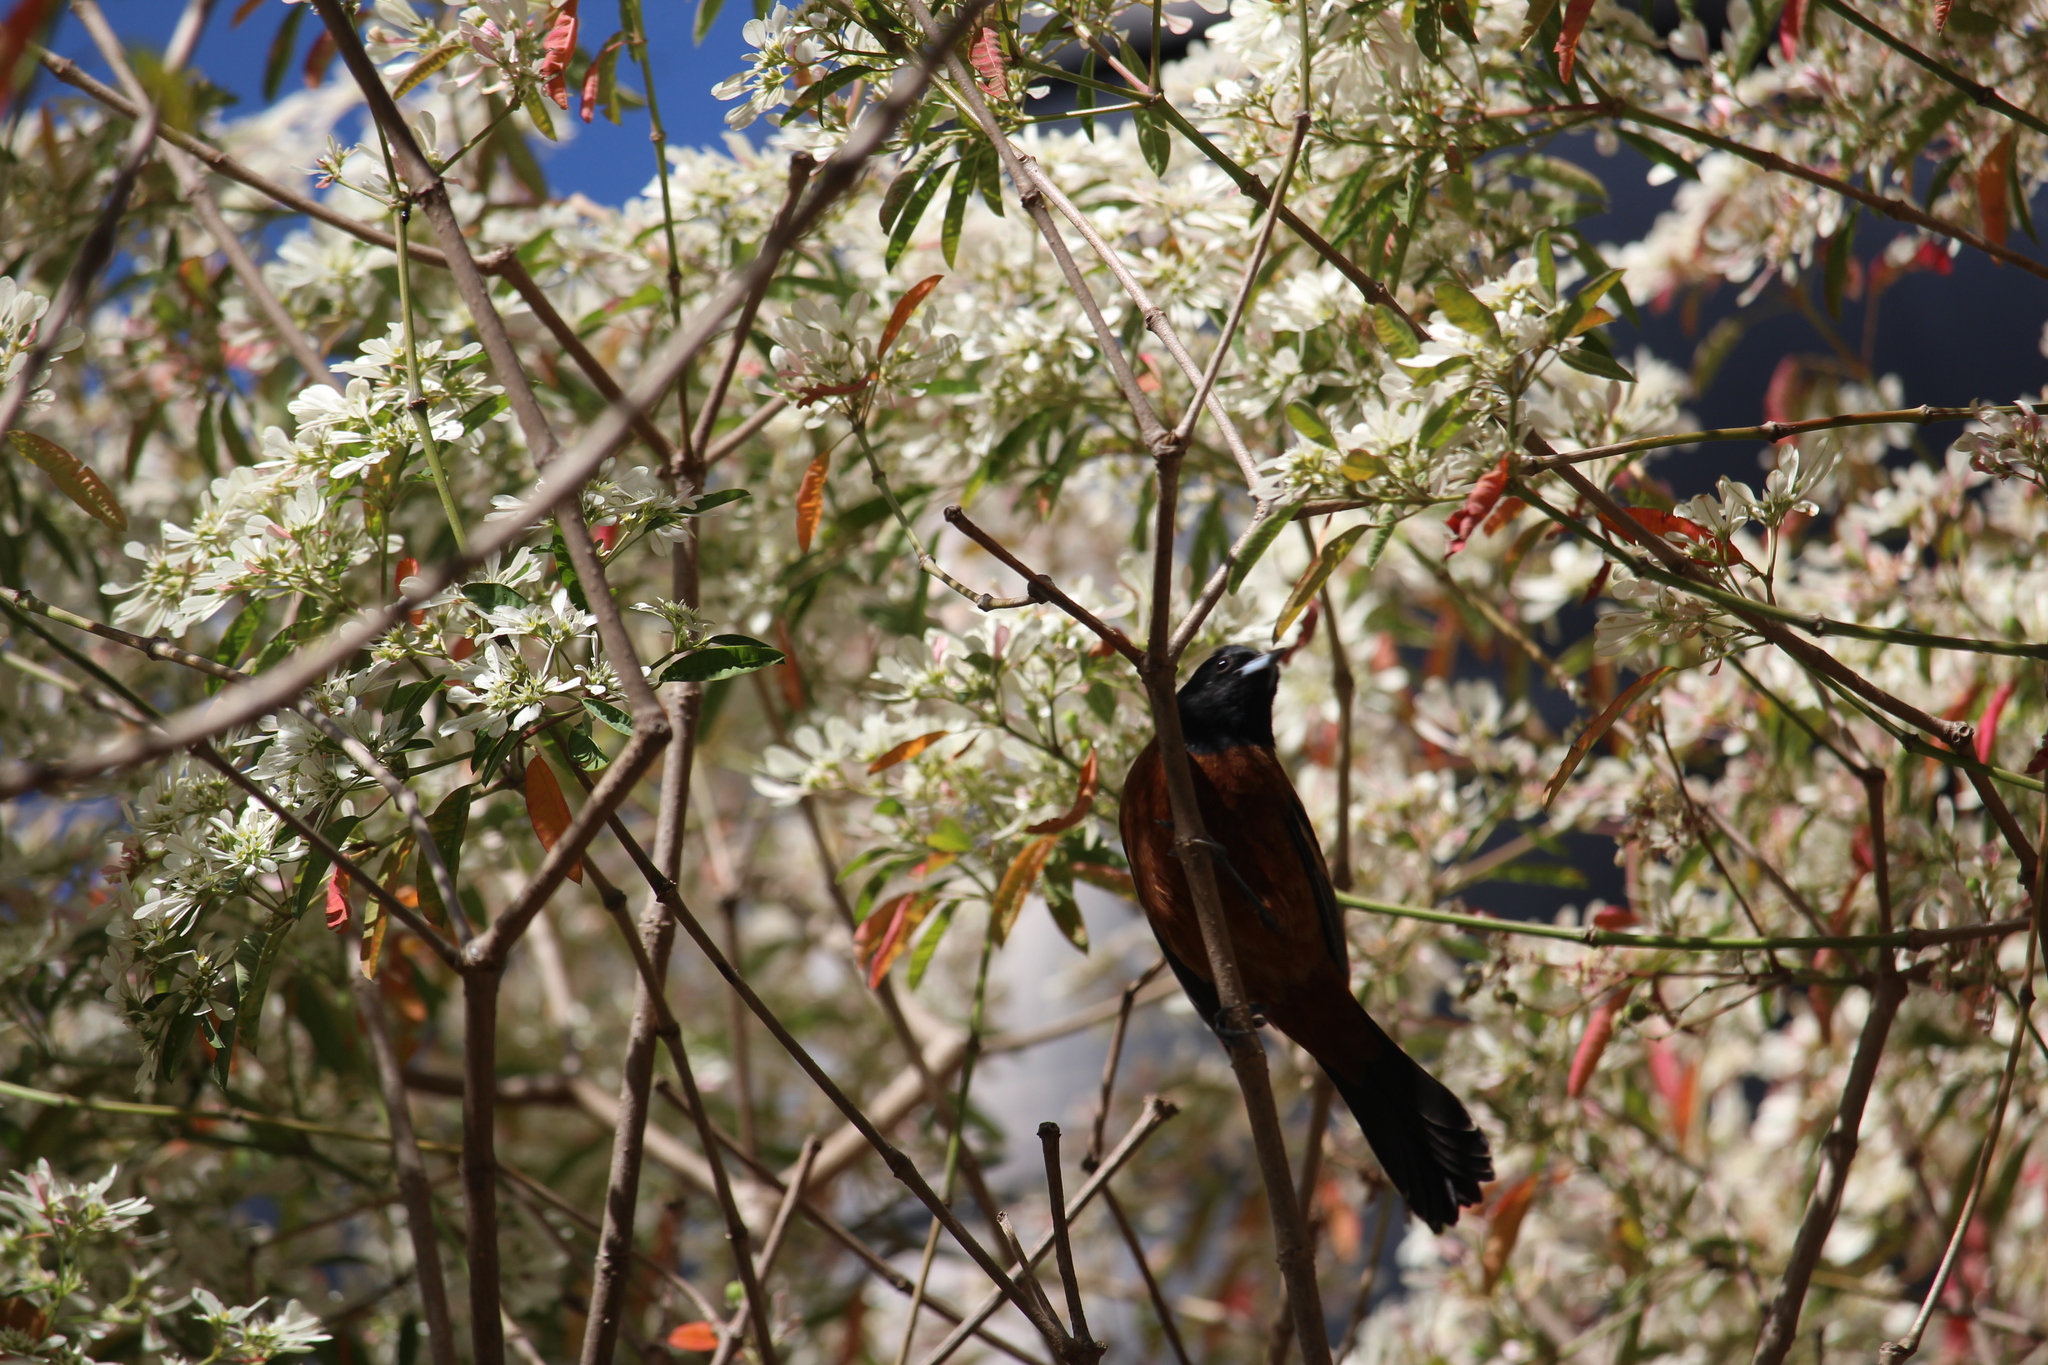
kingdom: Animalia
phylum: Chordata
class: Aves
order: Passeriformes
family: Icteridae
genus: Icterus
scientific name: Icterus spurius
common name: Orchard oriole
